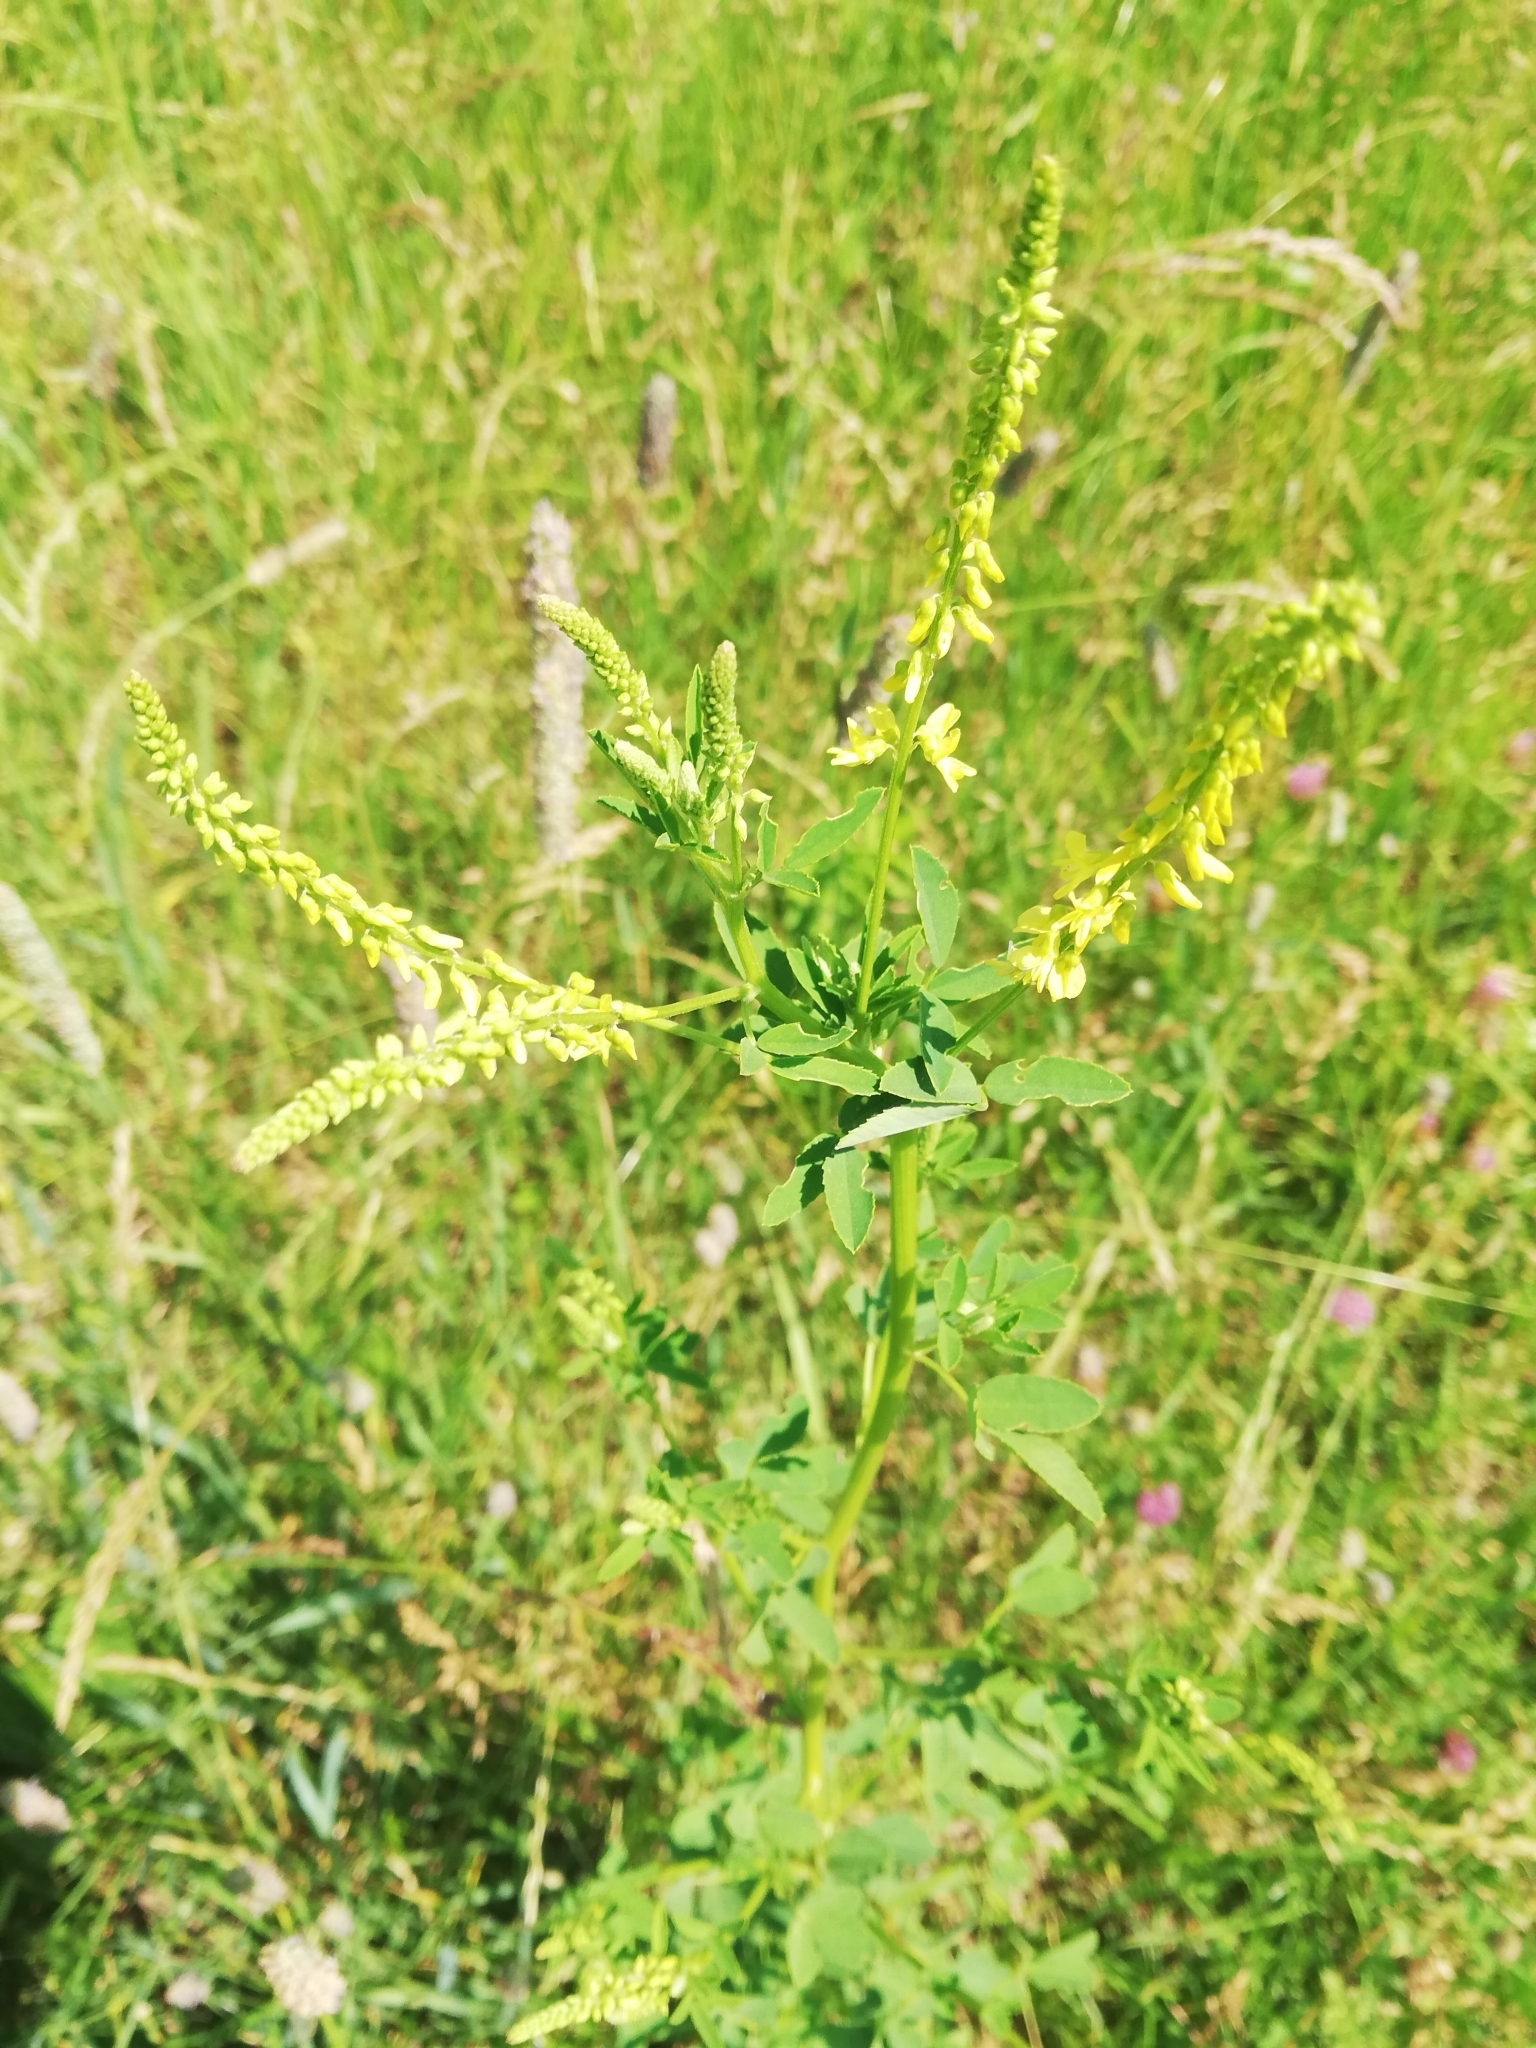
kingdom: Plantae
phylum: Tracheophyta
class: Magnoliopsida
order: Fabales
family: Fabaceae
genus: Melilotus
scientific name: Melilotus officinalis
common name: Sweetclover
